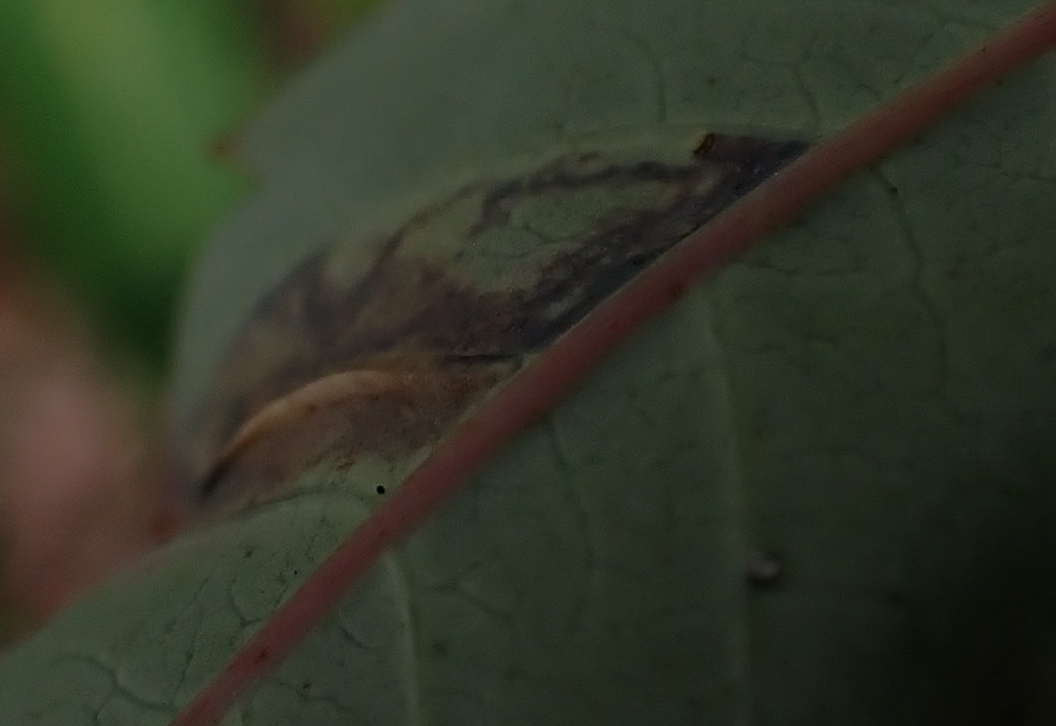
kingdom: Animalia
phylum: Arthropoda
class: Insecta
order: Lepidoptera
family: Gracillariidae
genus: Caloptilia
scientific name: Caloptilia rhoifoliella
